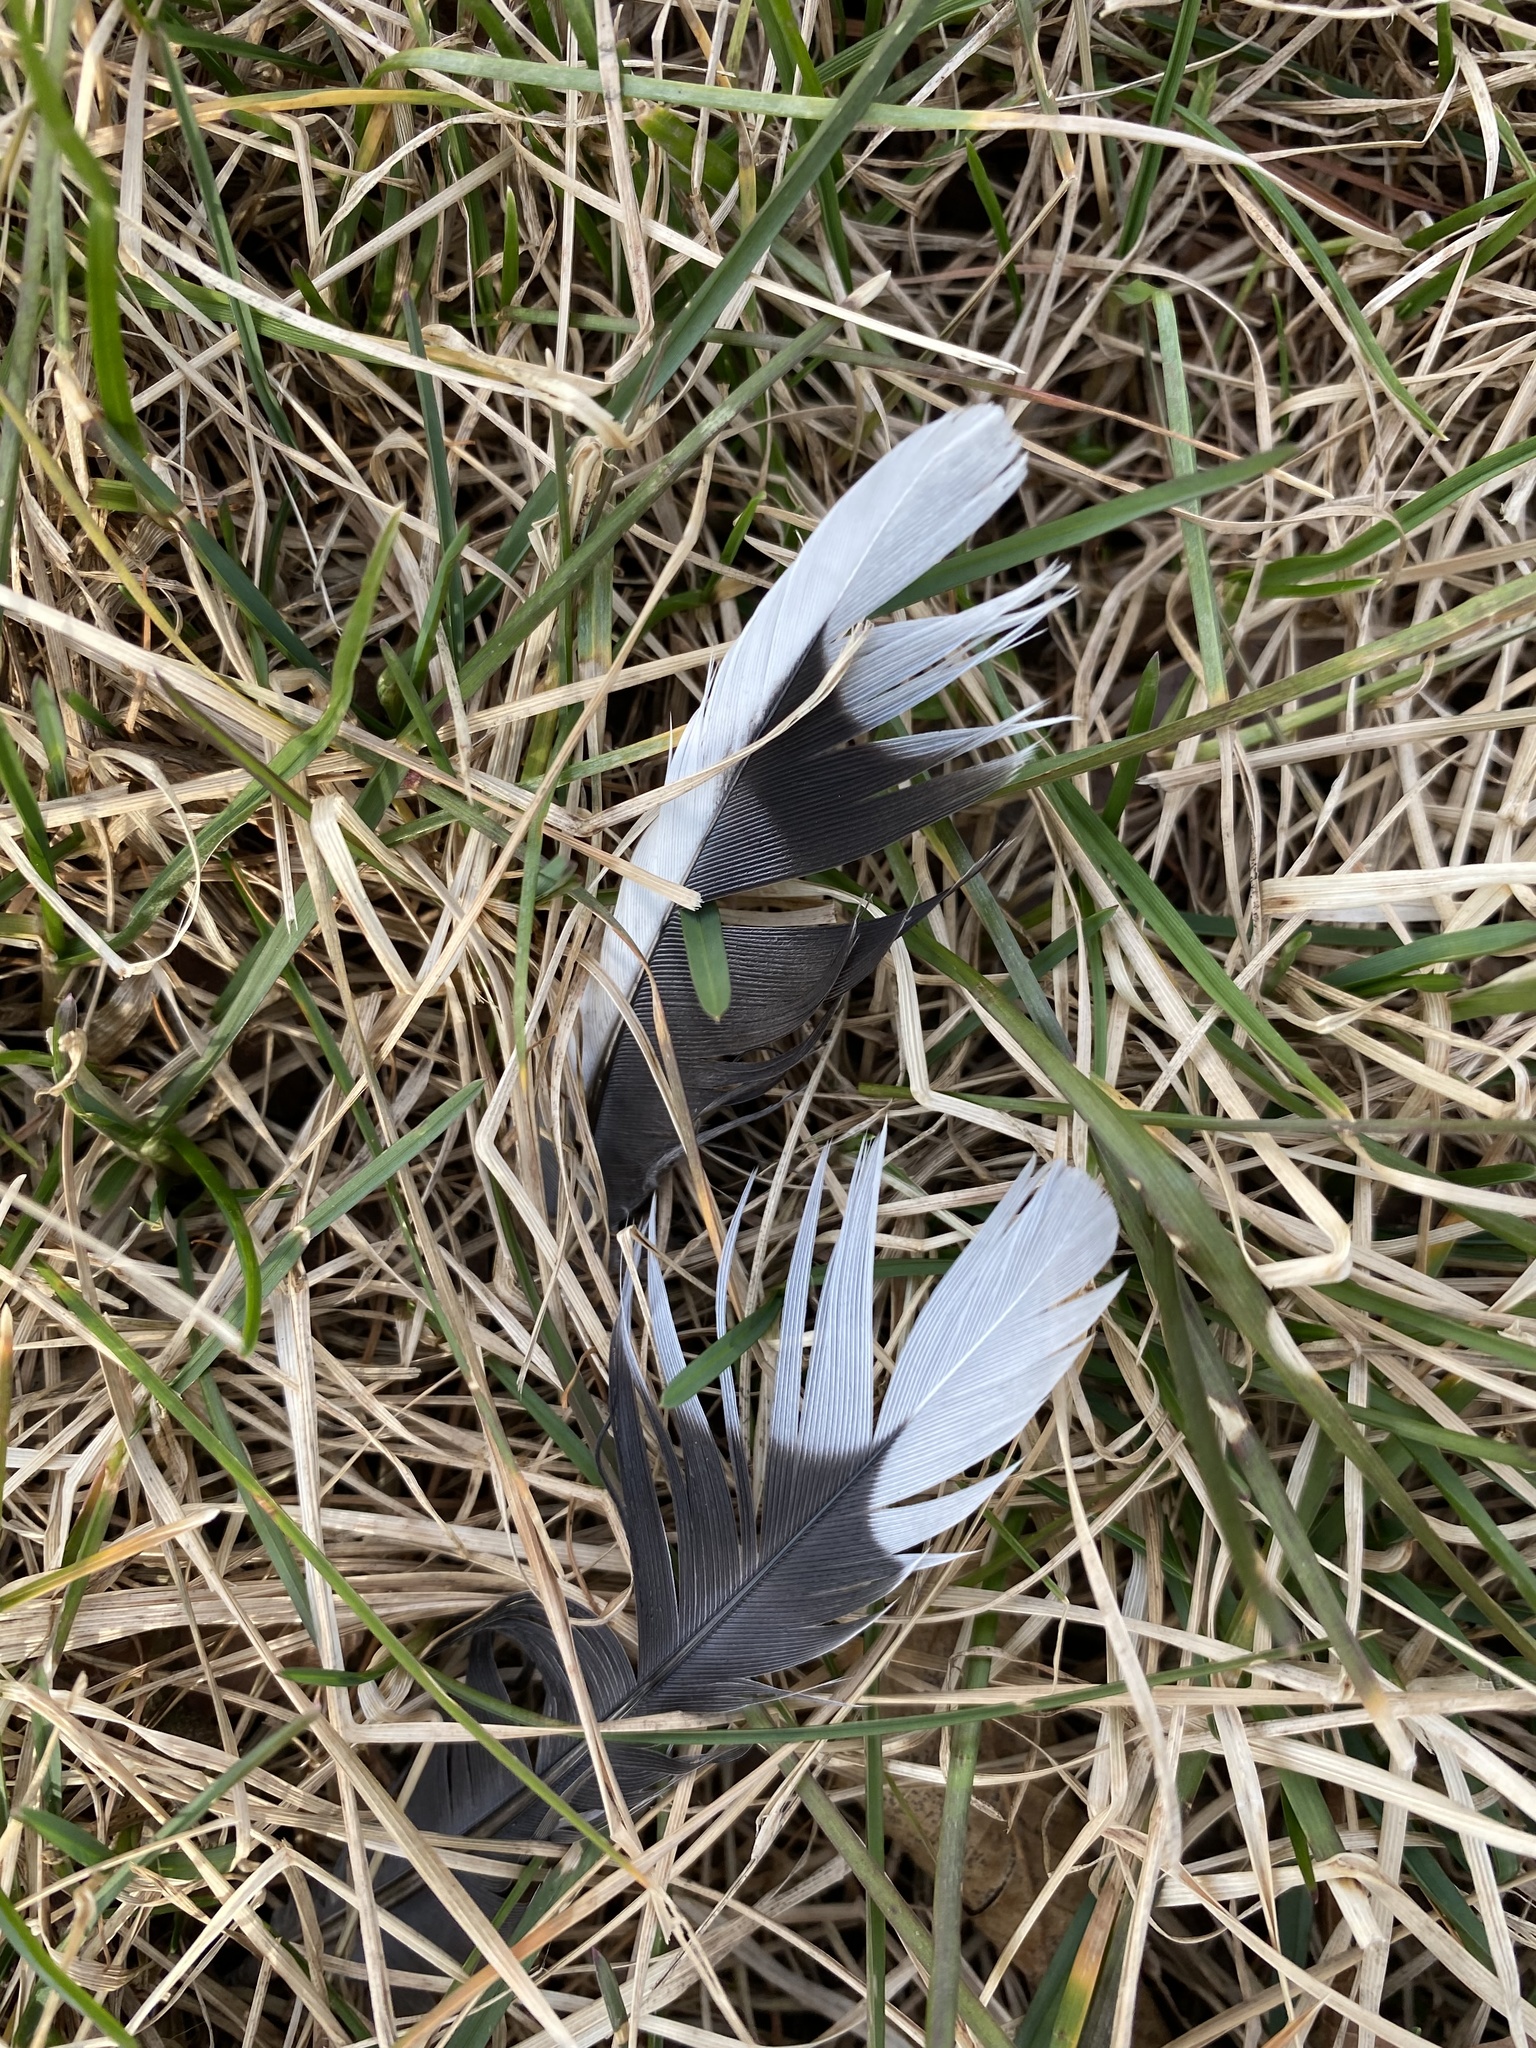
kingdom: Animalia
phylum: Chordata
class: Aves
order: Columbiformes
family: Columbidae
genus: Zenaida
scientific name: Zenaida macroura
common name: Mourning dove
